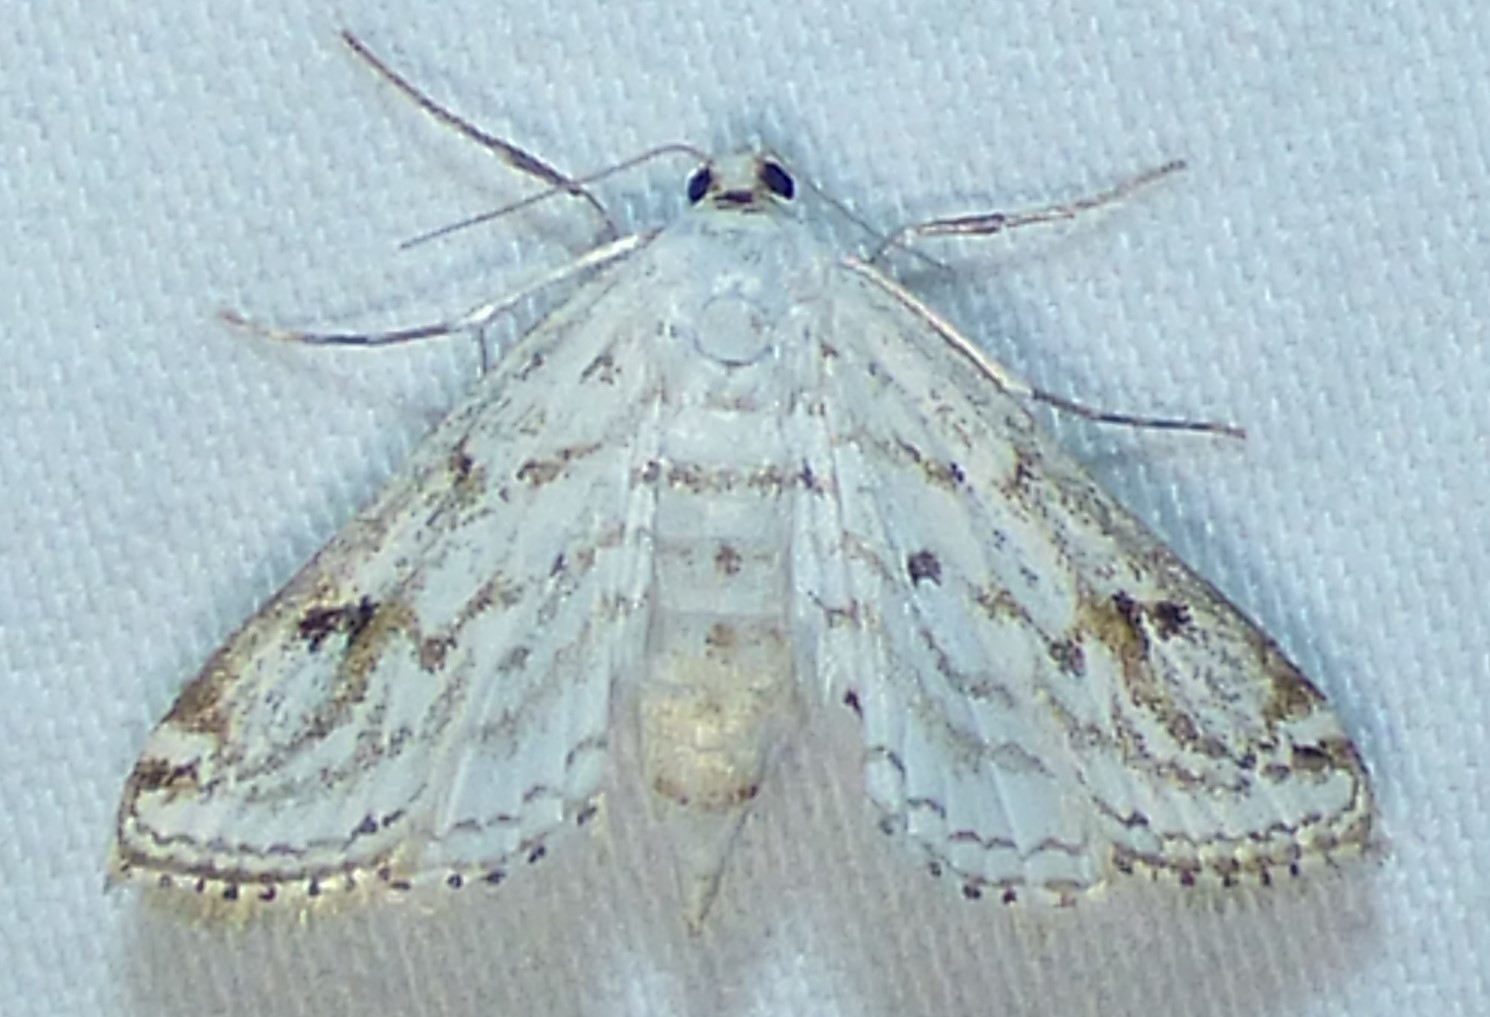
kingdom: Animalia
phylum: Arthropoda
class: Insecta
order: Lepidoptera
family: Crambidae
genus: Parapoynx
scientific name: Parapoynx allionealis
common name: Bladderwort casemaker
